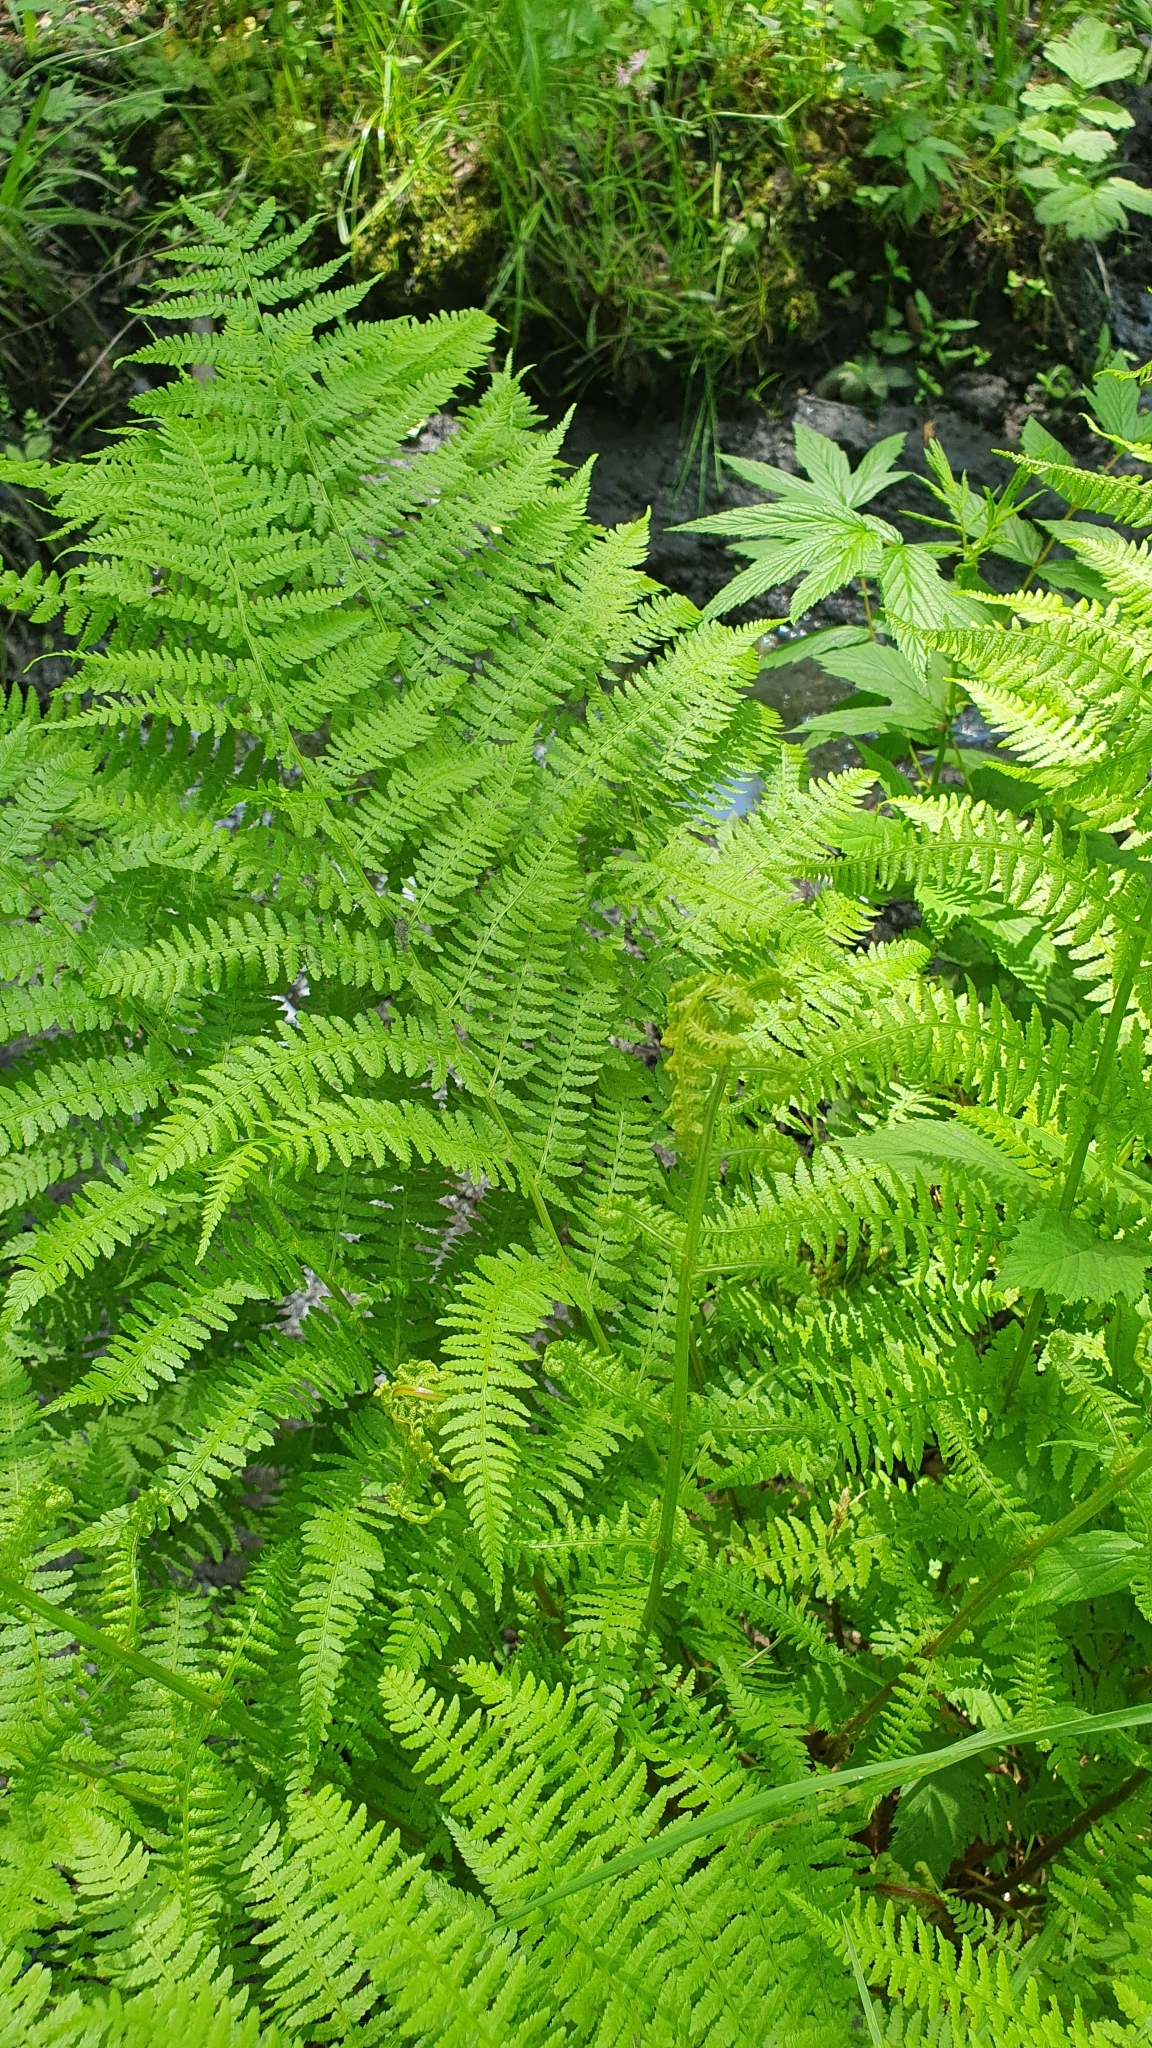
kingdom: Plantae
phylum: Tracheophyta
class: Polypodiopsida
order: Polypodiales
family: Athyriaceae
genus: Athyrium
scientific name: Athyrium filix-femina
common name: Lady fern
